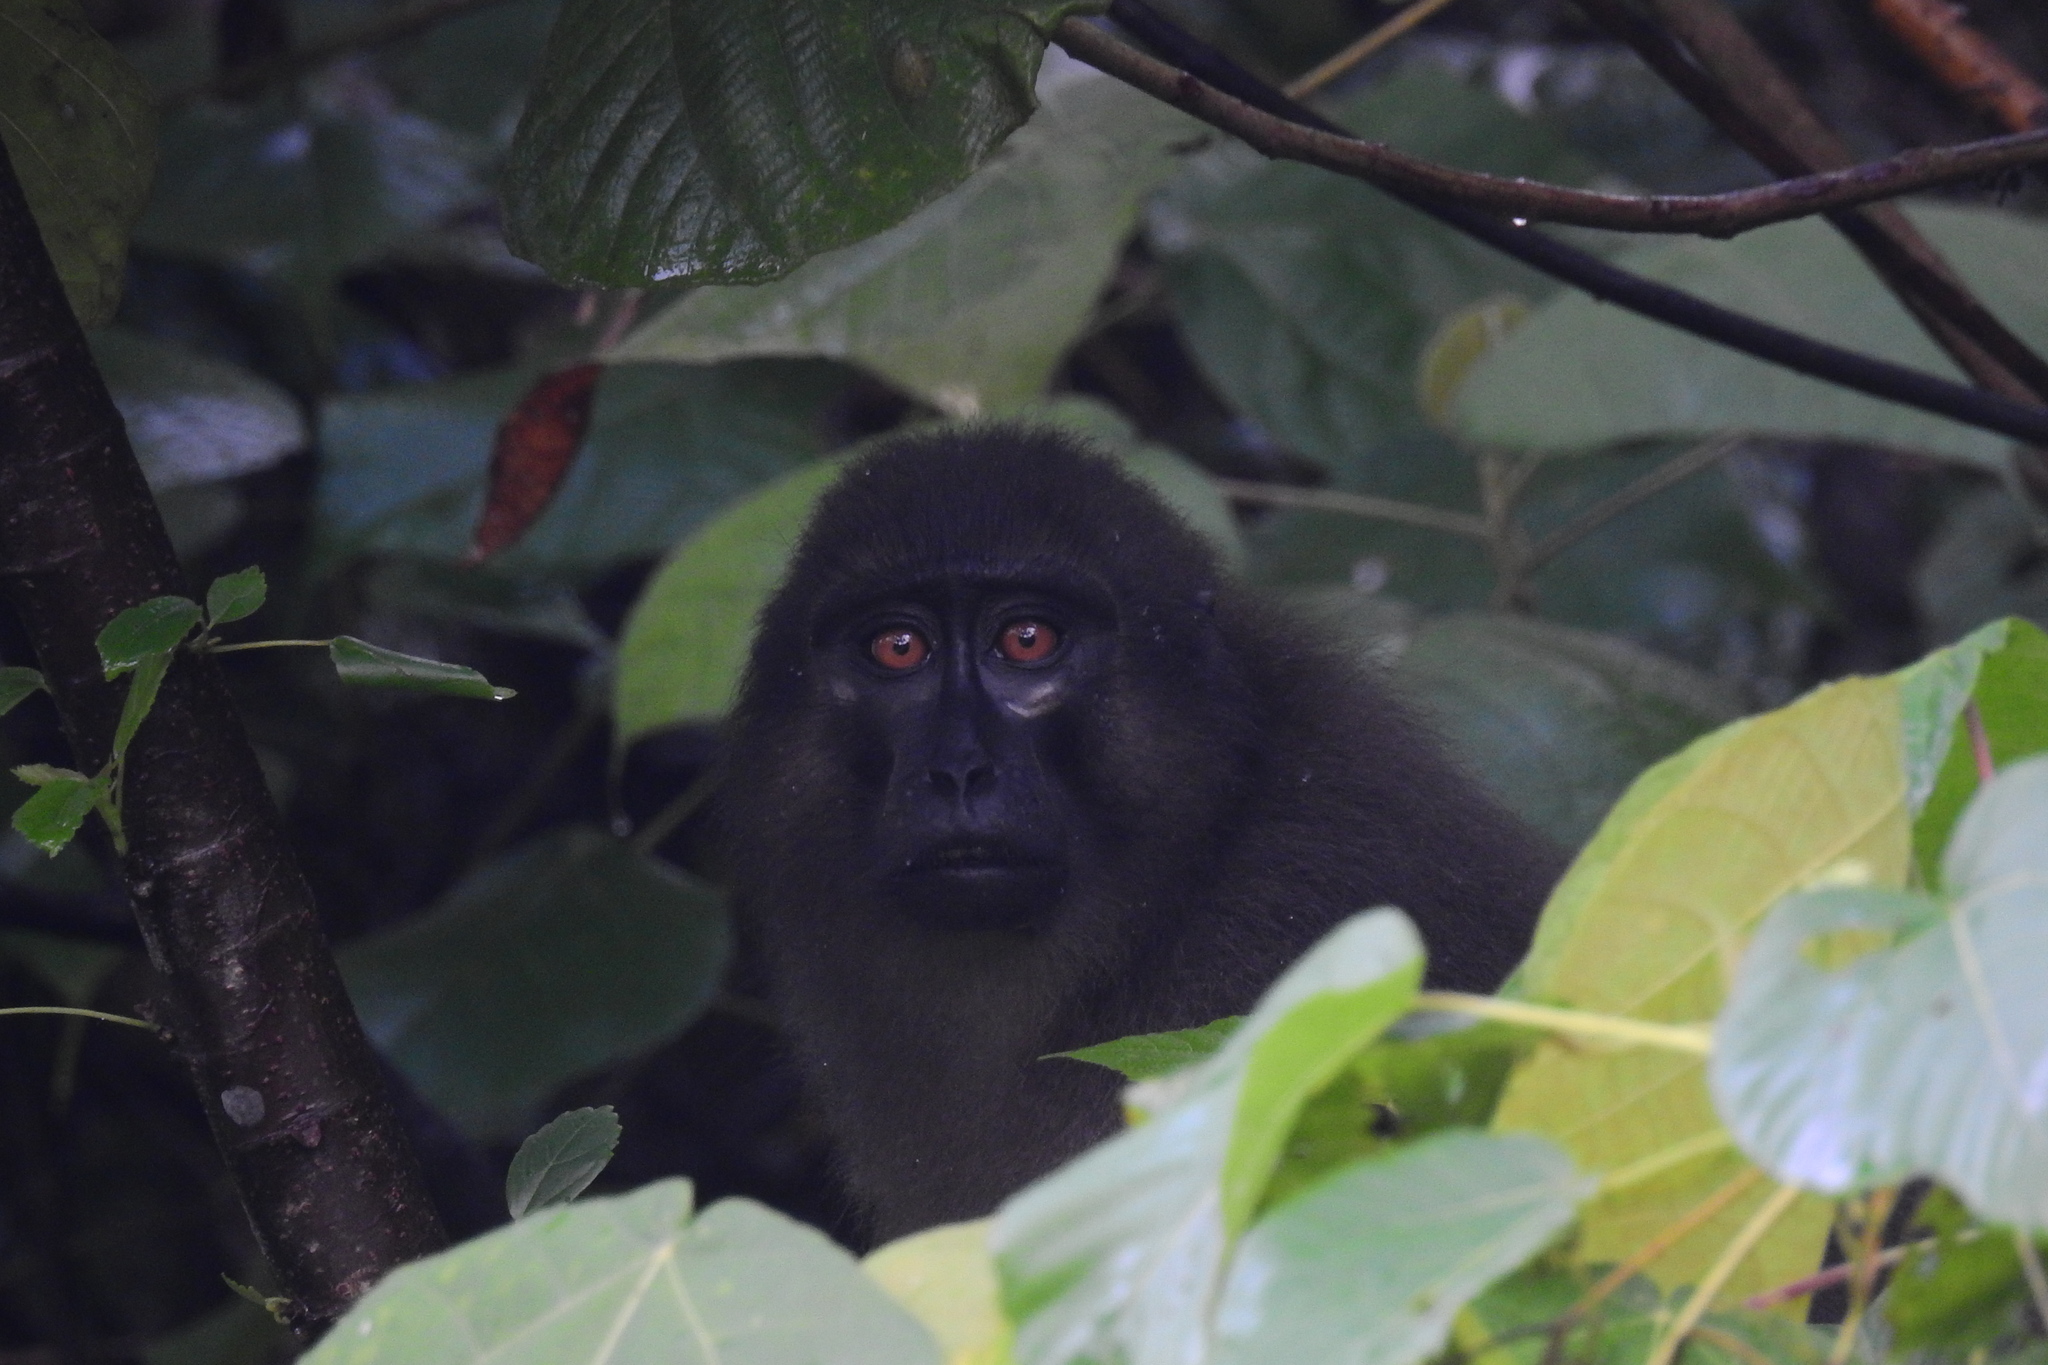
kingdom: Animalia
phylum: Chordata
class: Mammalia
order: Primates
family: Cercopithecidae
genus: Macaca
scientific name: Macaca ochreata
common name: Booted macaque
